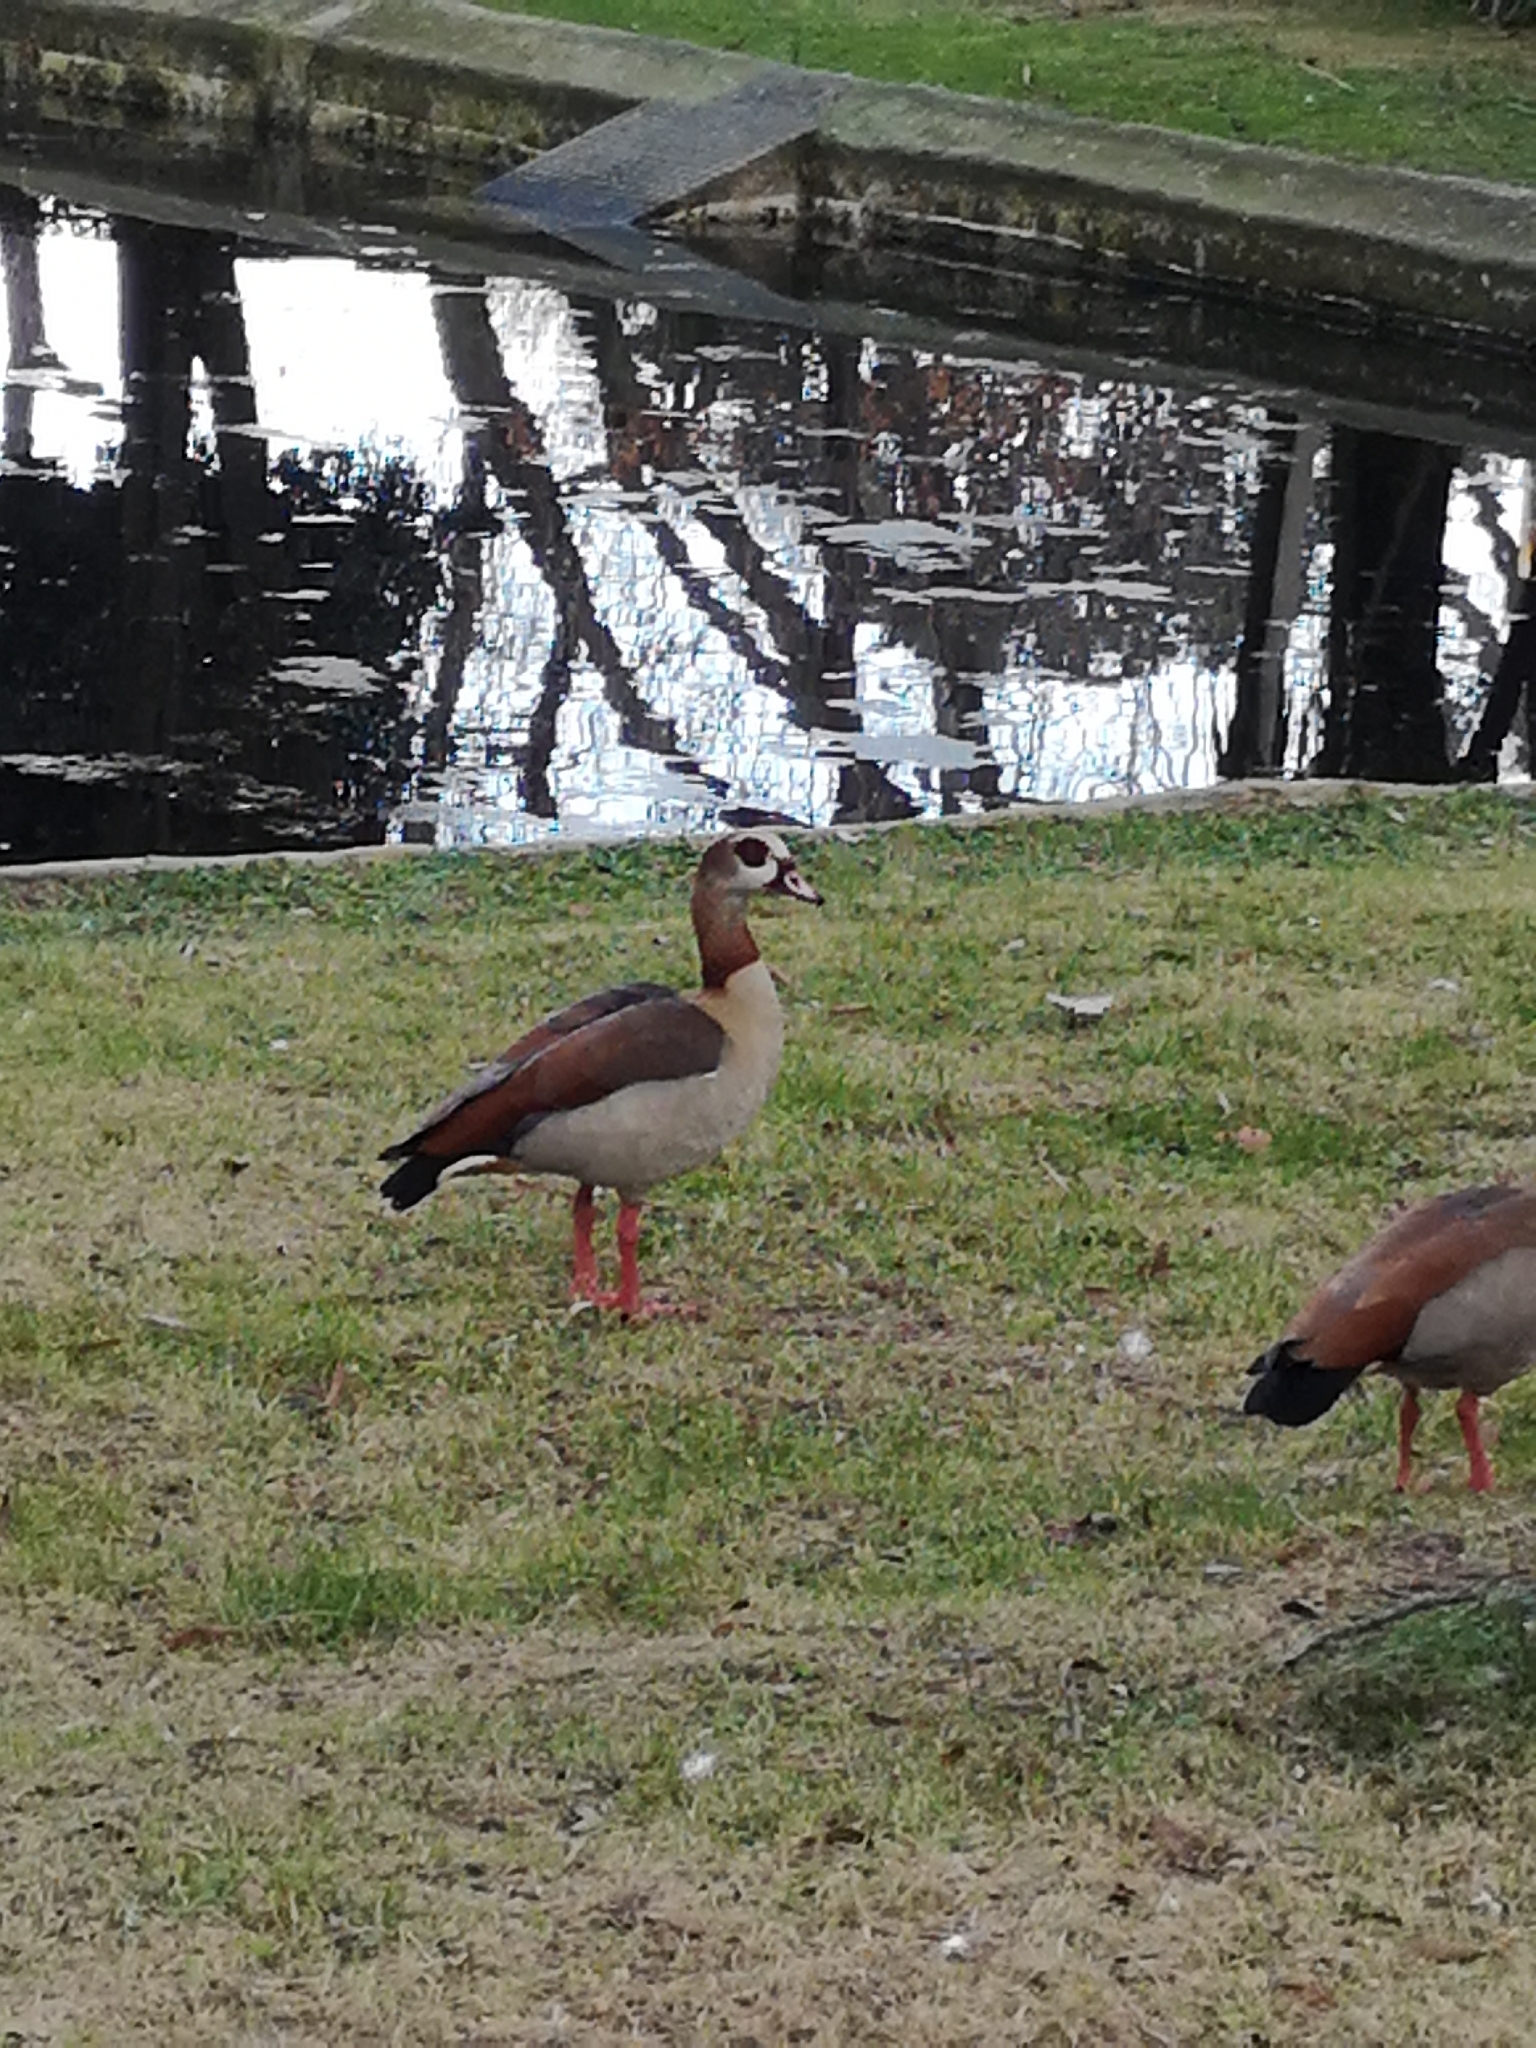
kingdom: Animalia
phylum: Chordata
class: Aves
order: Anseriformes
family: Anatidae
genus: Alopochen
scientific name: Alopochen aegyptiaca
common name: Egyptian goose
